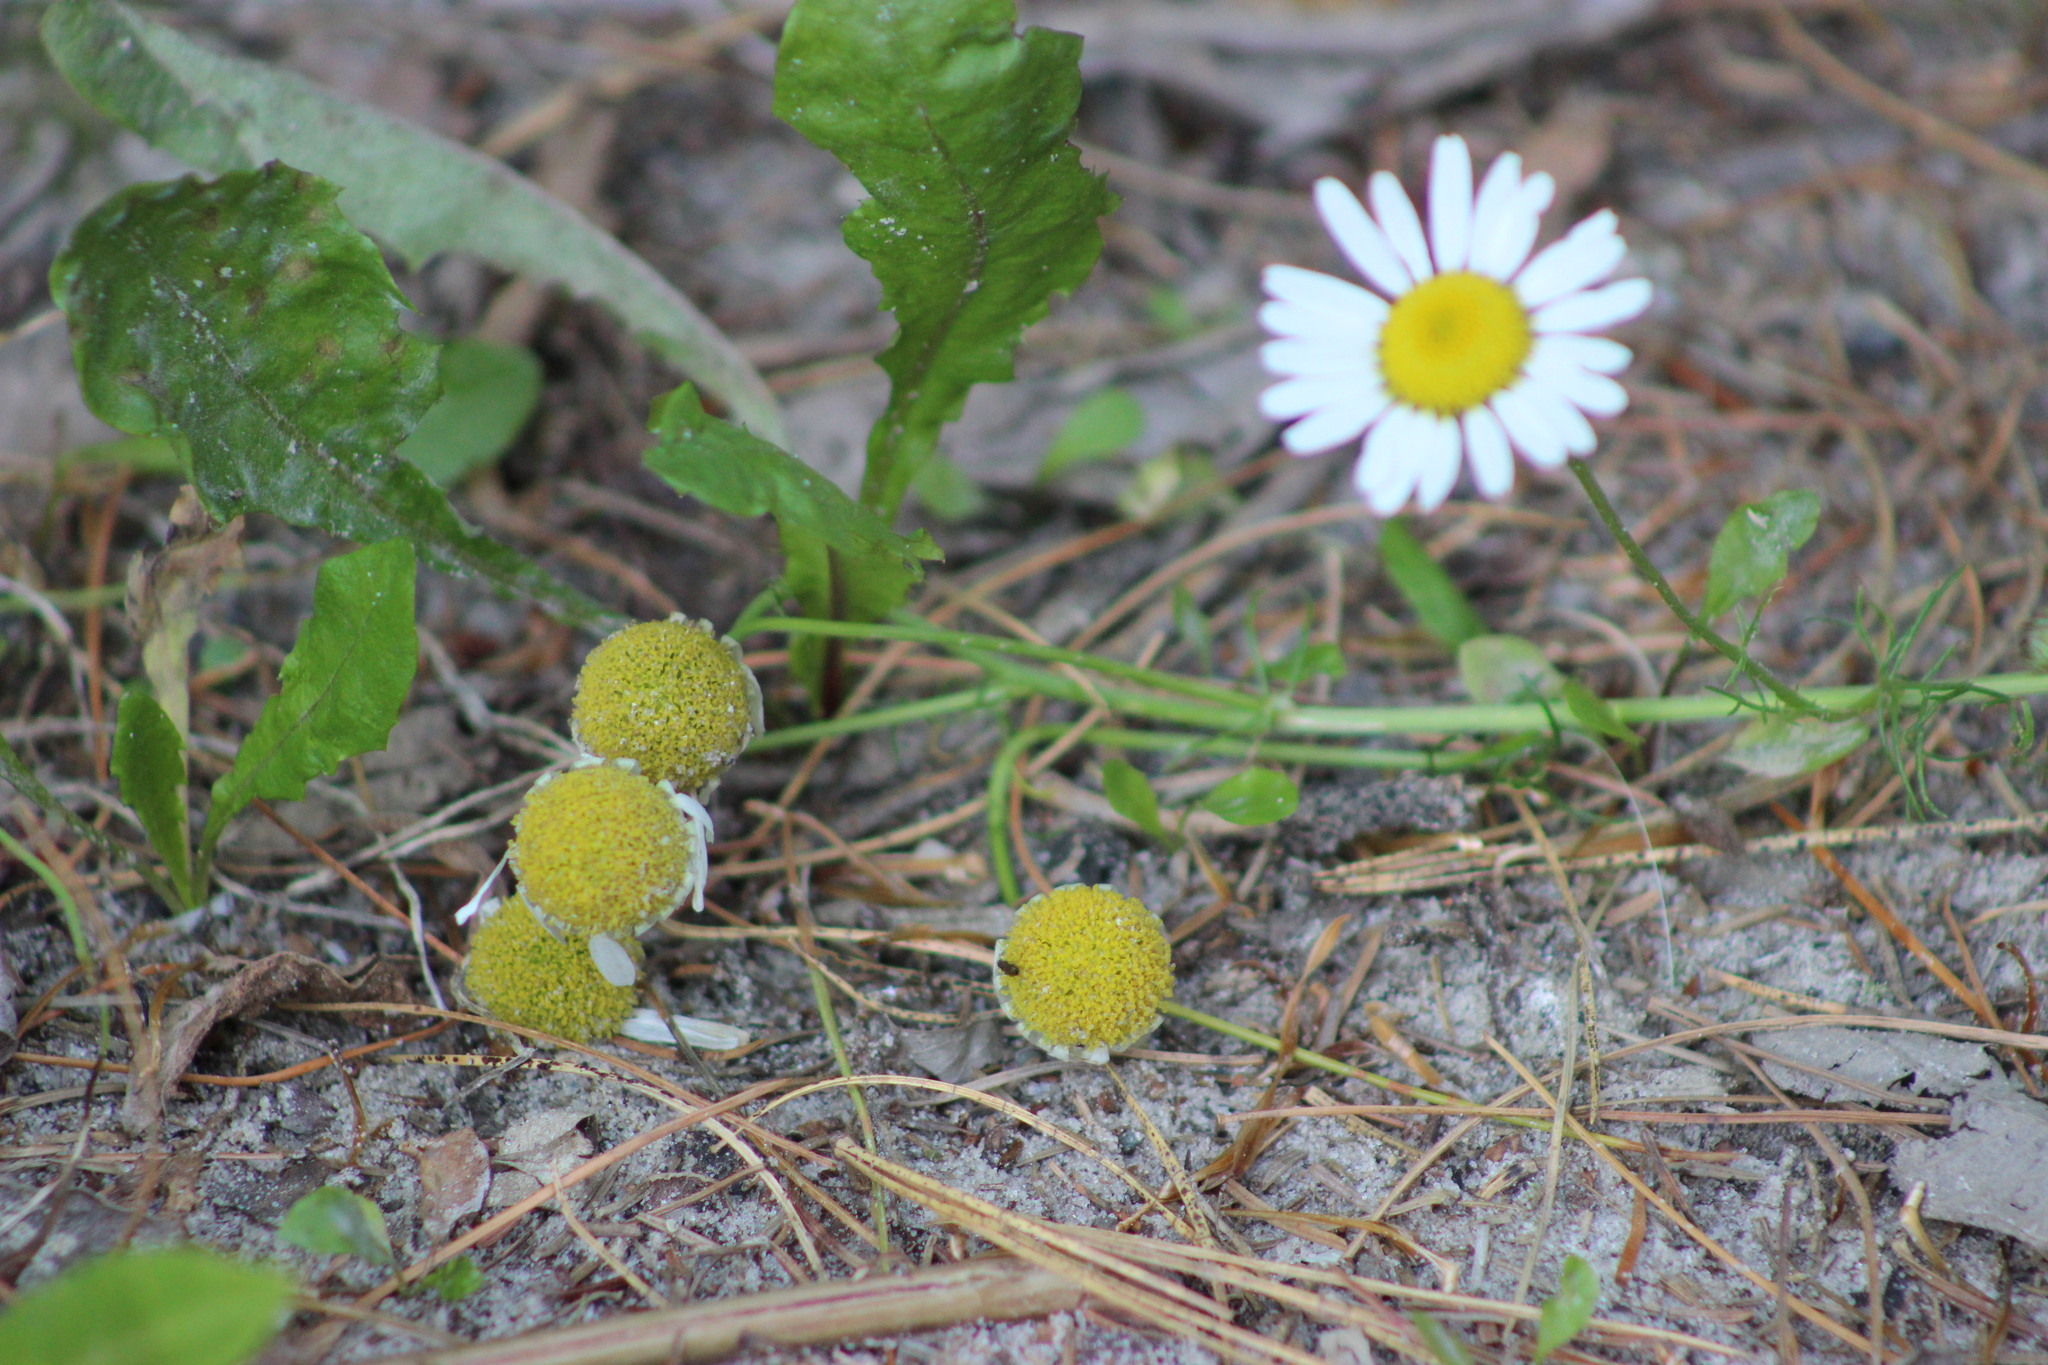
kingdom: Plantae
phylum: Tracheophyta
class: Magnoliopsida
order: Asterales
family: Asteraceae
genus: Tripleurospermum
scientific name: Tripleurospermum inodorum
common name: Scentless mayweed
